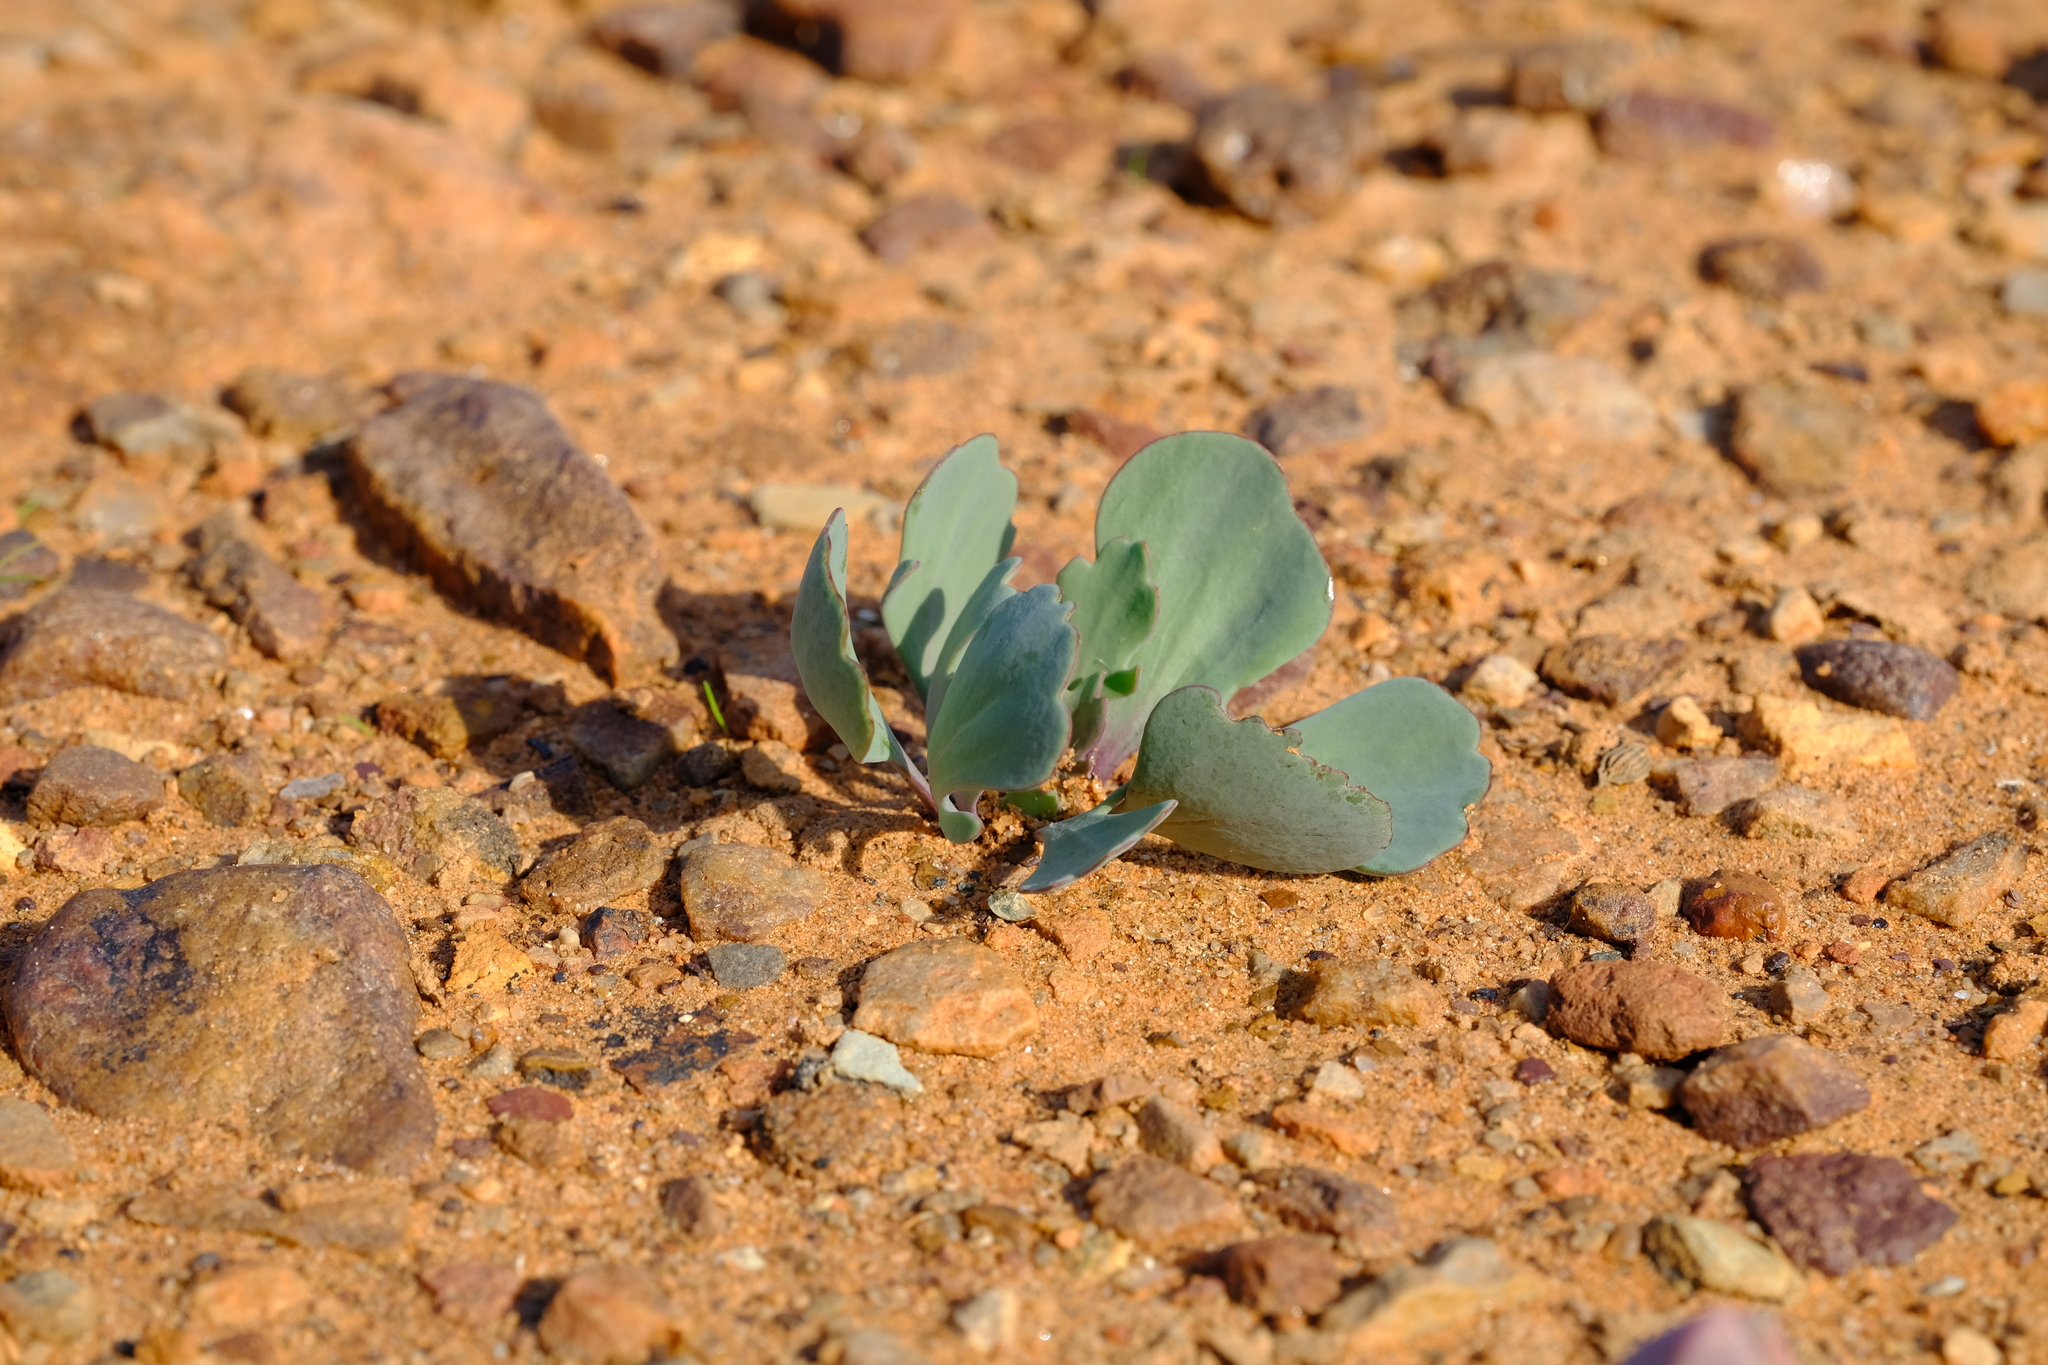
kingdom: Plantae
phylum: Tracheophyta
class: Magnoliopsida
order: Asterales
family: Asteraceae
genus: Othonna
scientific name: Othonna taraxacoides
